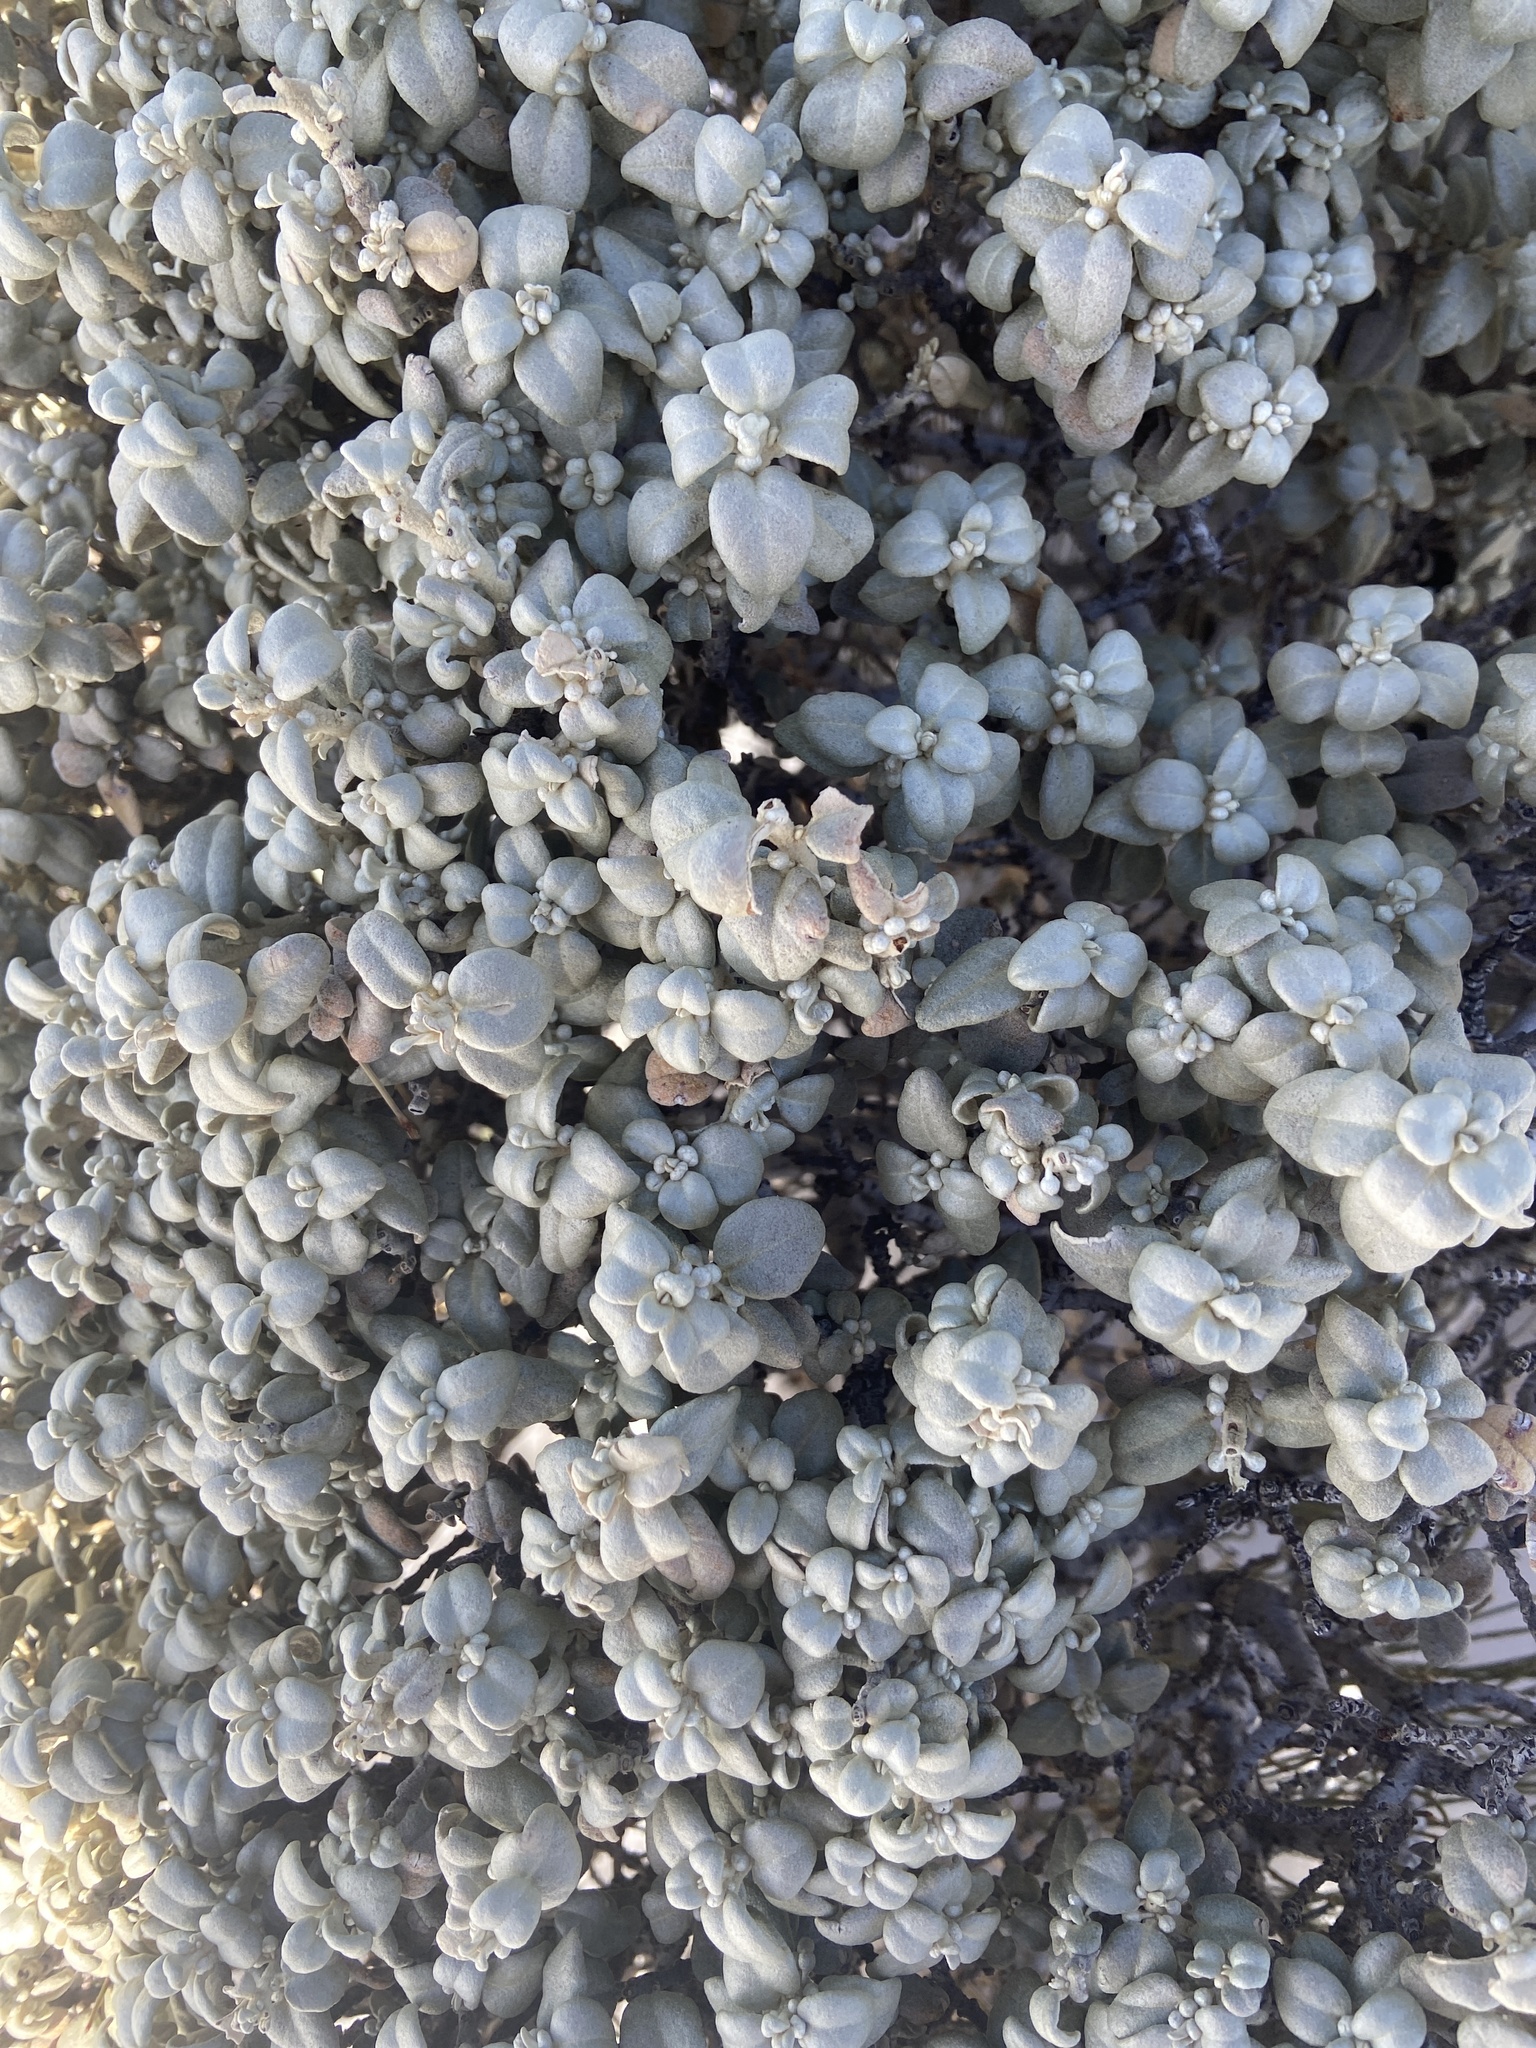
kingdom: Plantae
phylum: Tracheophyta
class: Magnoliopsida
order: Rosales
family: Elaeagnaceae
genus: Shepherdia
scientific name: Shepherdia rotundifolia
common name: Silverscale
